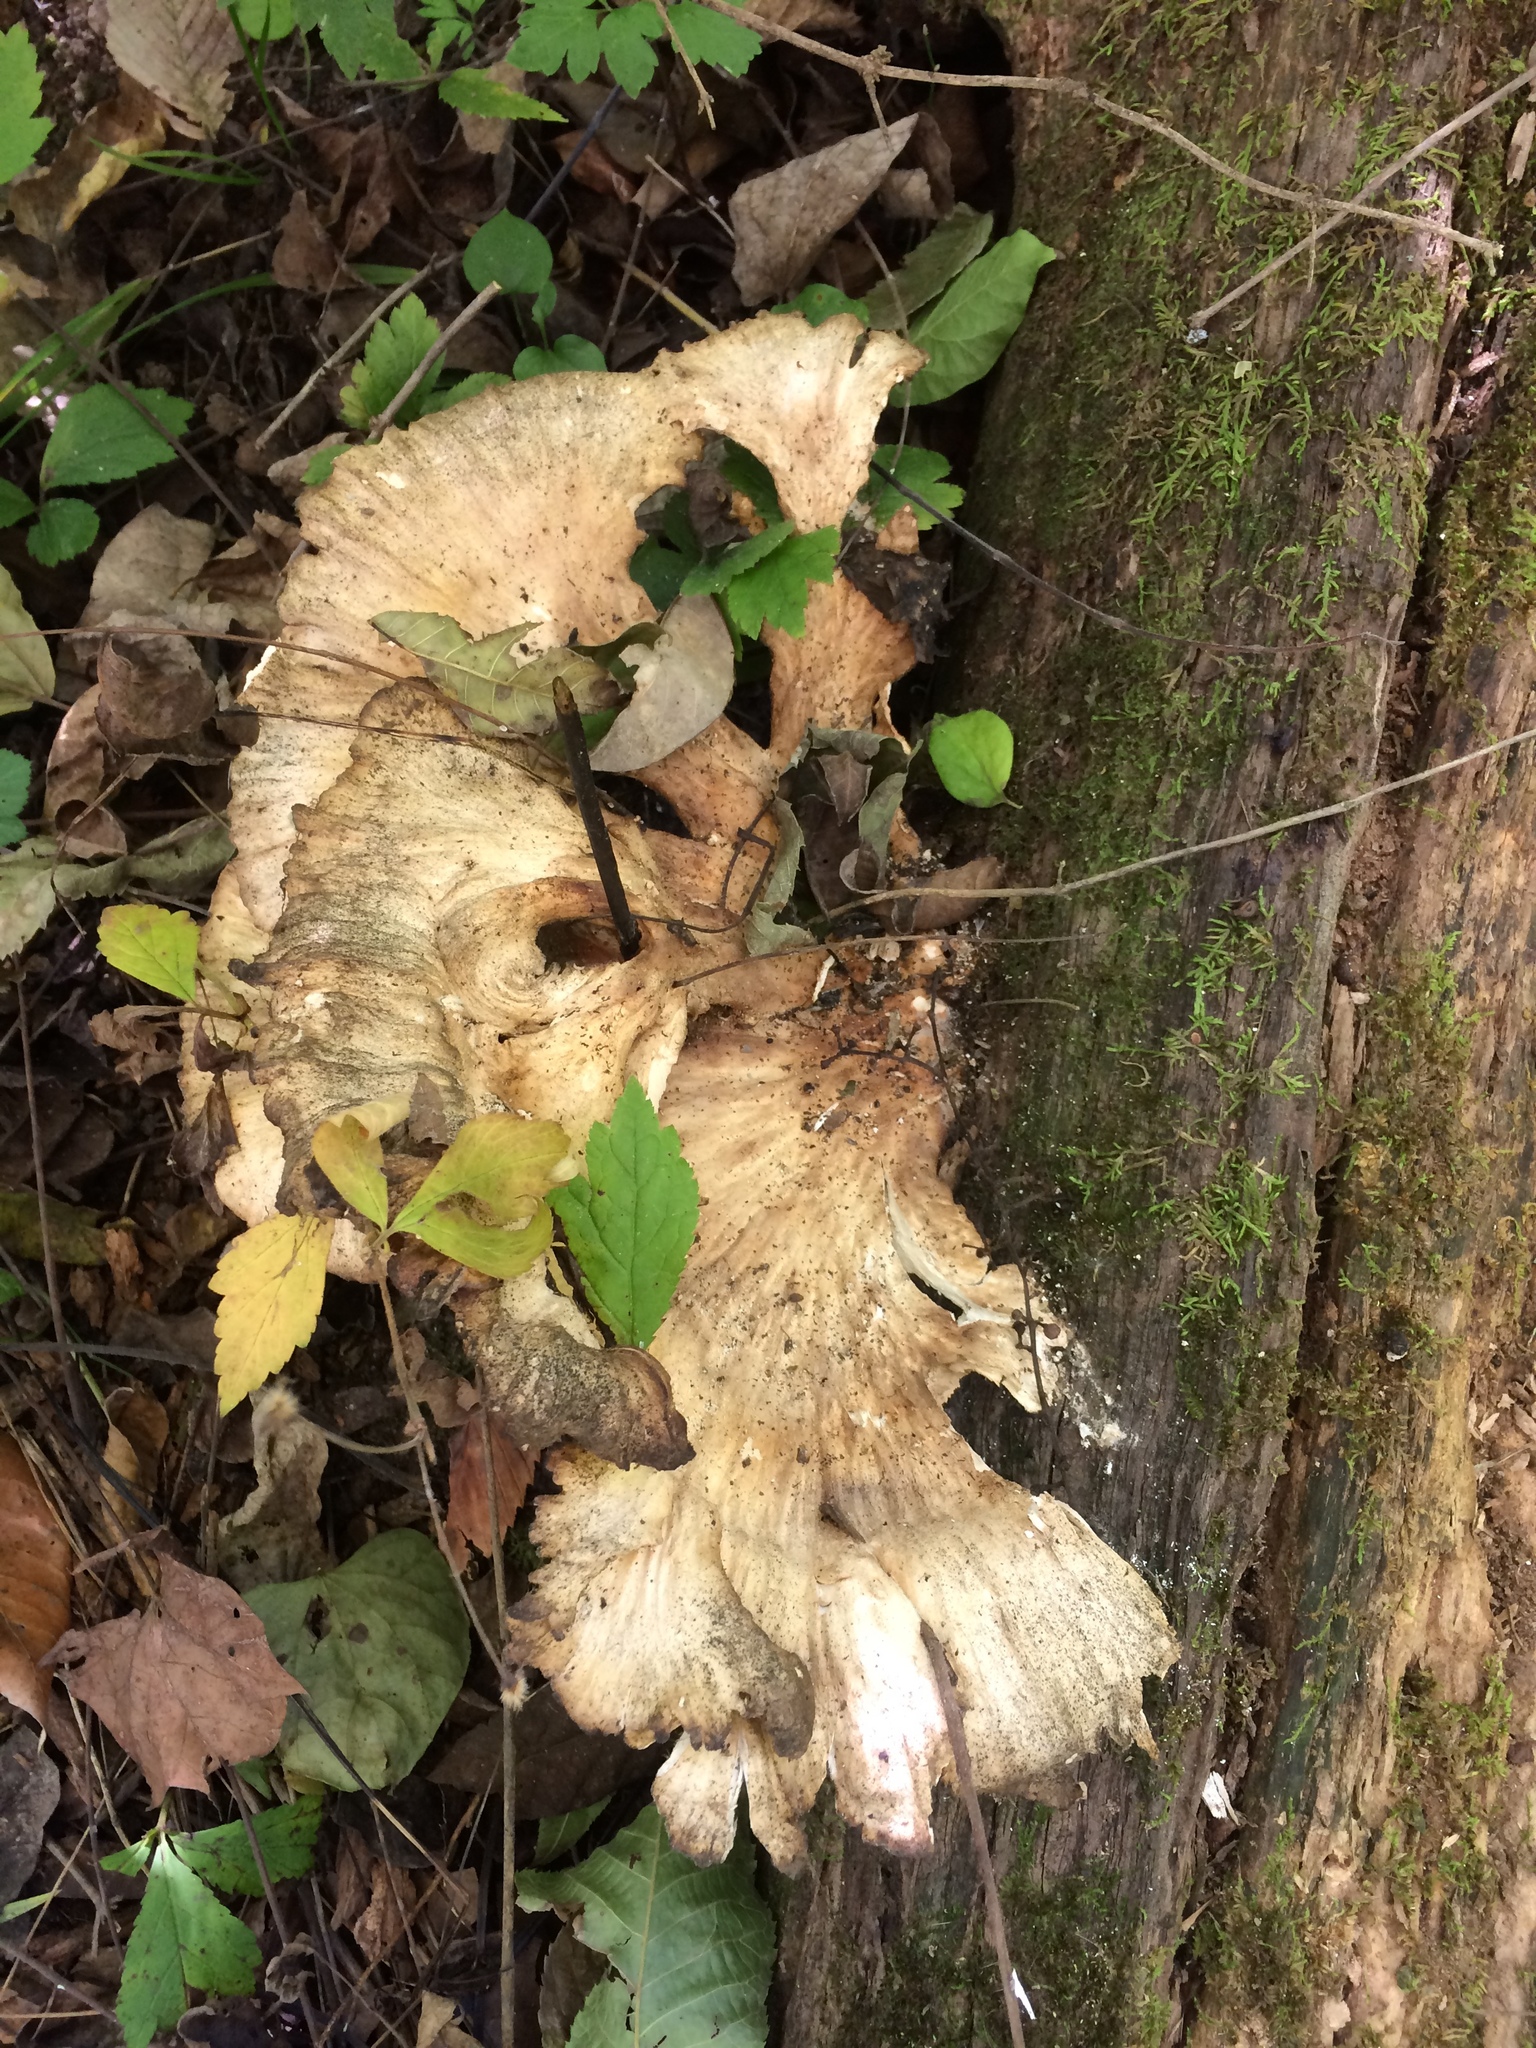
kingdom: Fungi
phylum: Basidiomycota
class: Agaricomycetes
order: Polyporales
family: Laetiporaceae
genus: Laetiporus
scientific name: Laetiporus sulphureus
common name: Chicken of the woods
